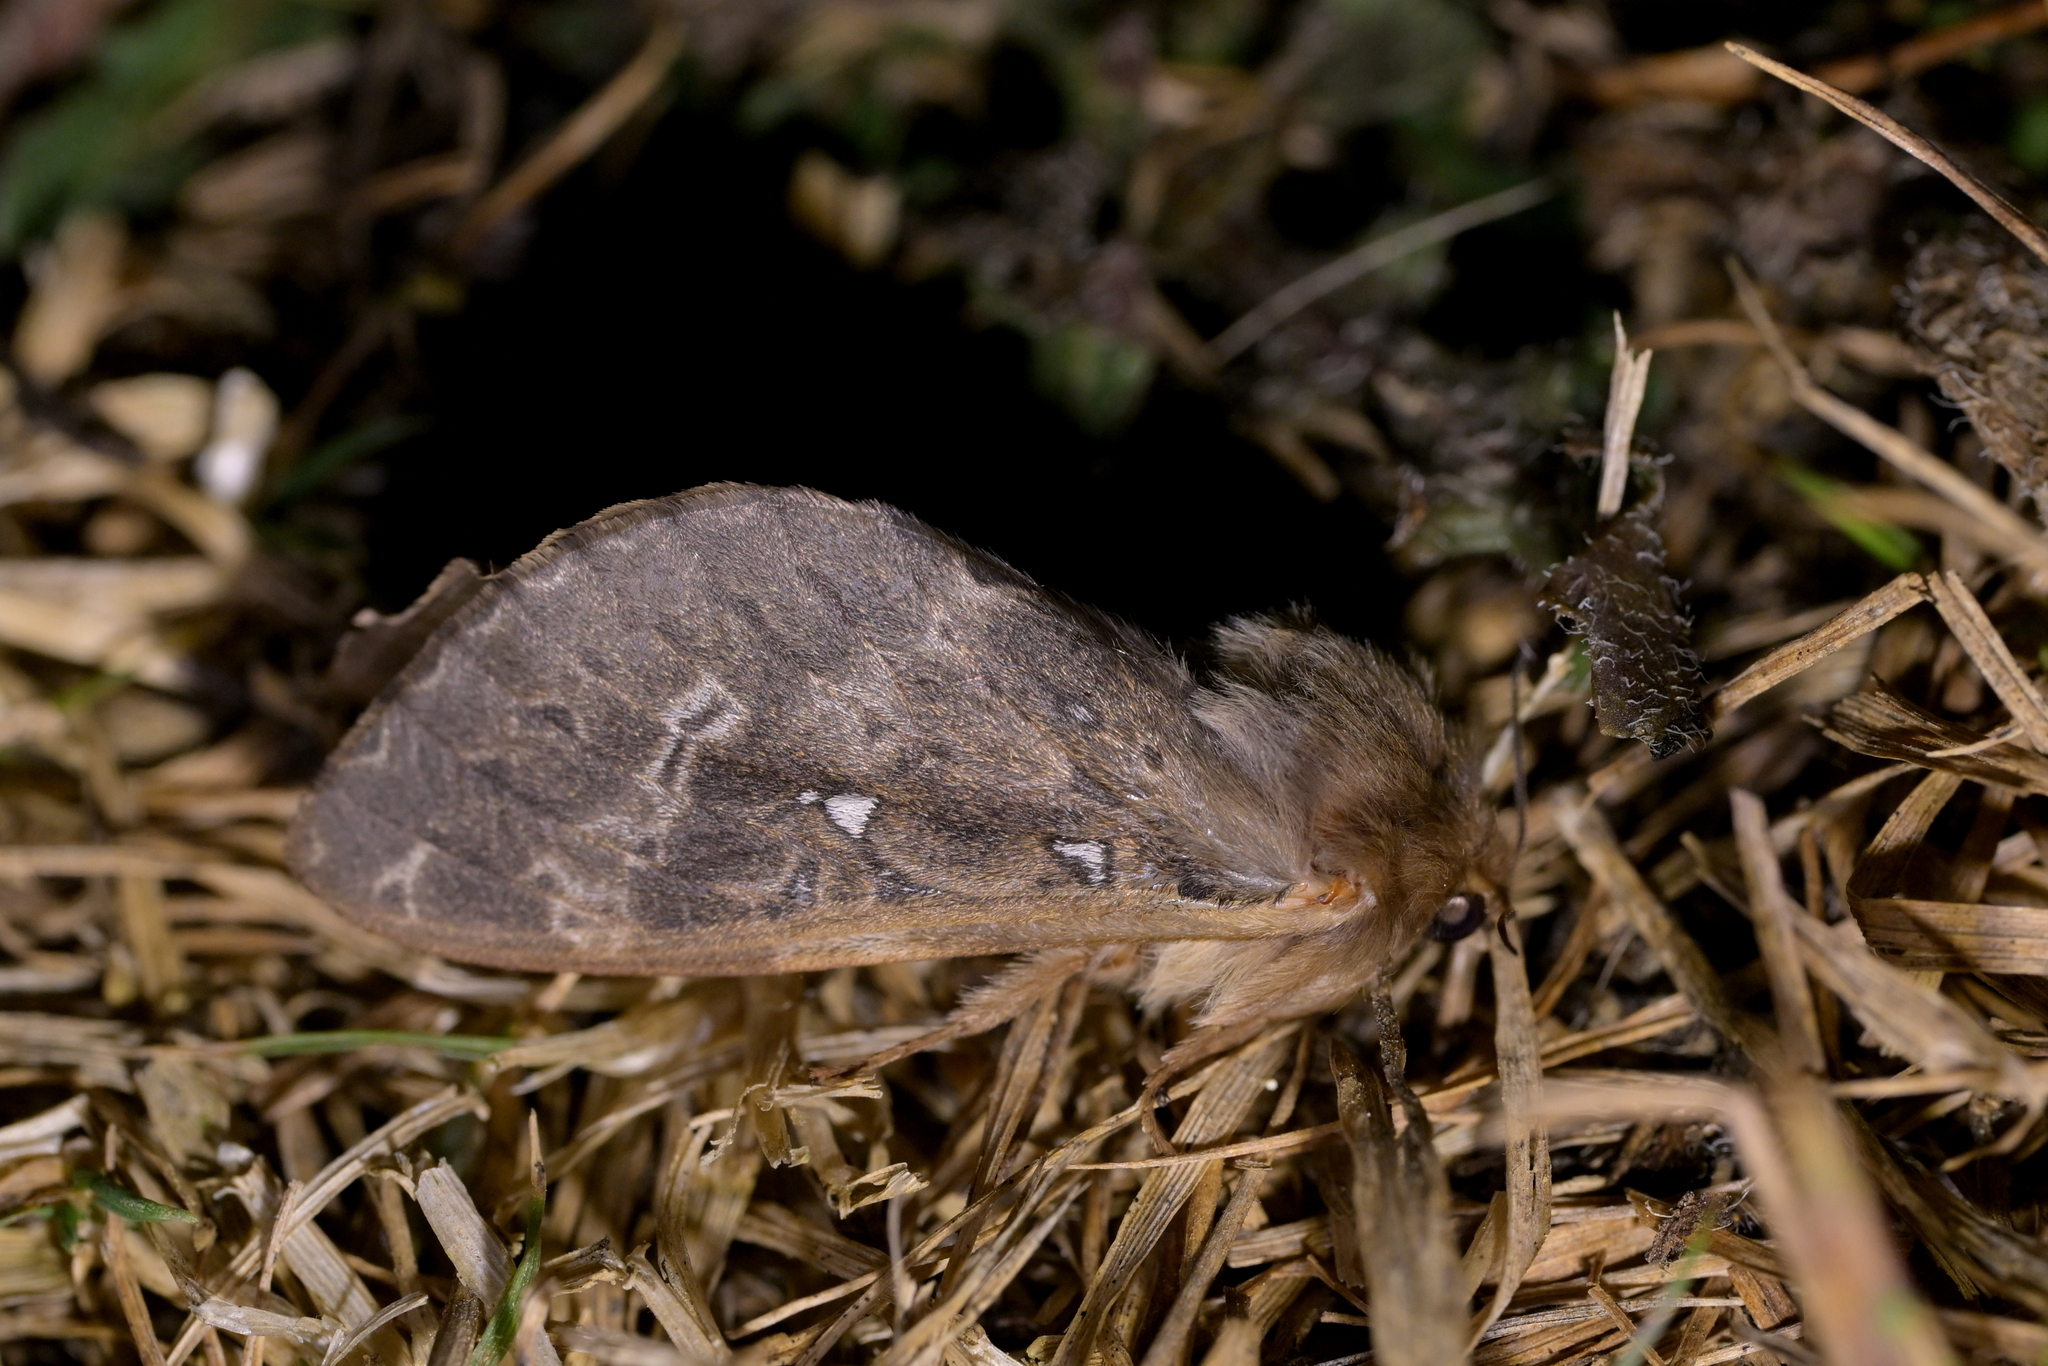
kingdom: Animalia
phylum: Arthropoda
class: Insecta
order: Lepidoptera
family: Hepialidae
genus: Wiseana
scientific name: Wiseana cervinata
